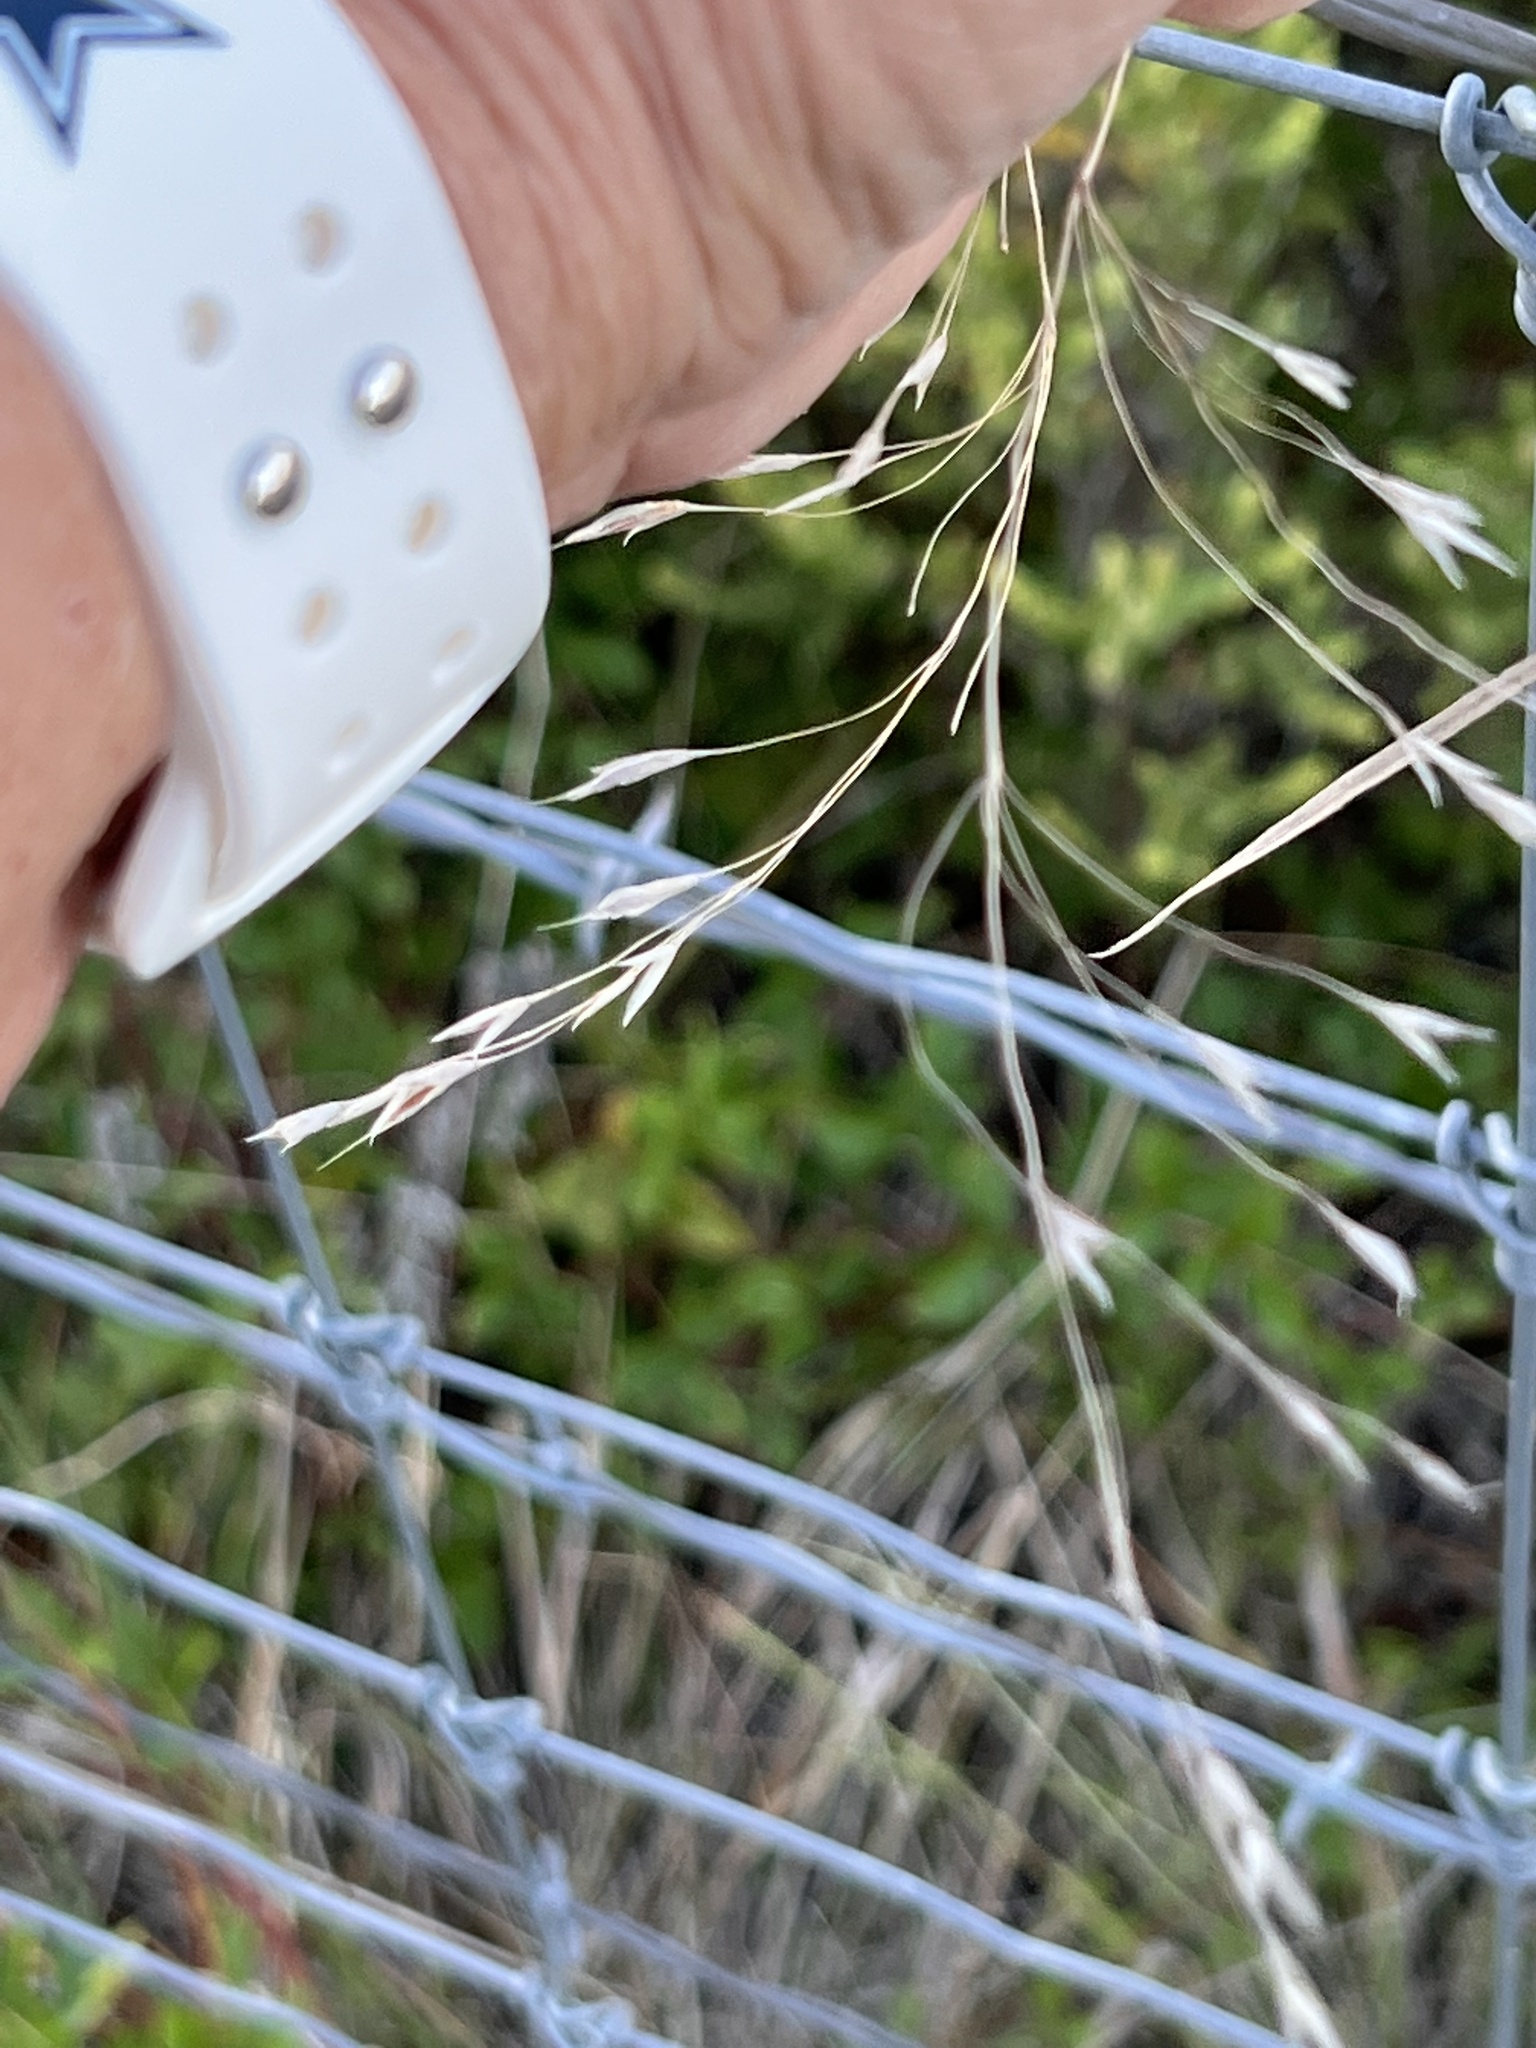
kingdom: Plantae
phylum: Tracheophyta
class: Liliopsida
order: Poales
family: Poaceae
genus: Bromus
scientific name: Bromus japonicus
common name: Japanese brome
